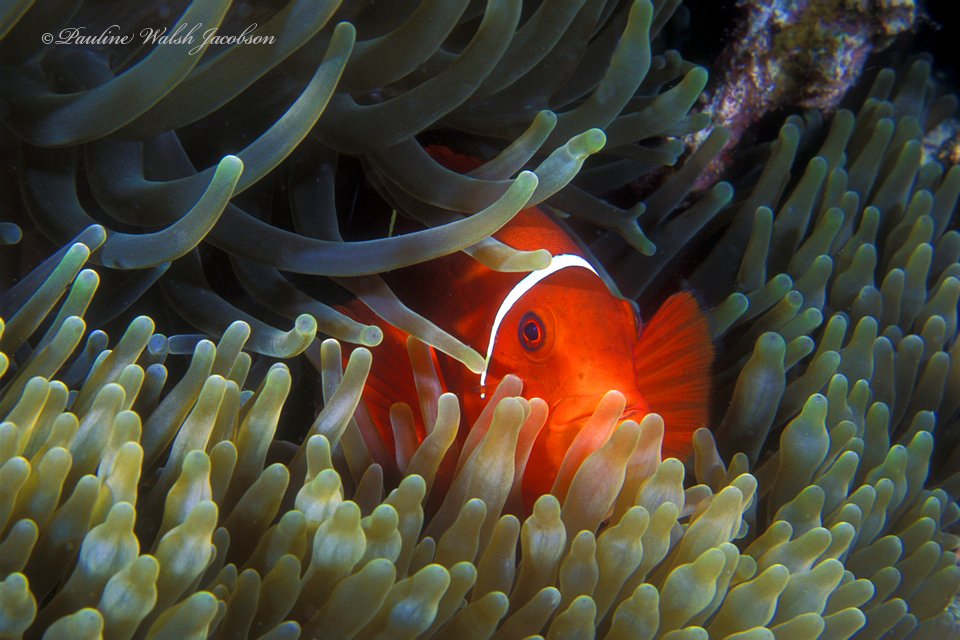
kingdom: Animalia
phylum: Chordata
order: Perciformes
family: Pomacentridae
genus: Premnas
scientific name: Premnas biaculeatus
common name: Spinecheek anemonefish
